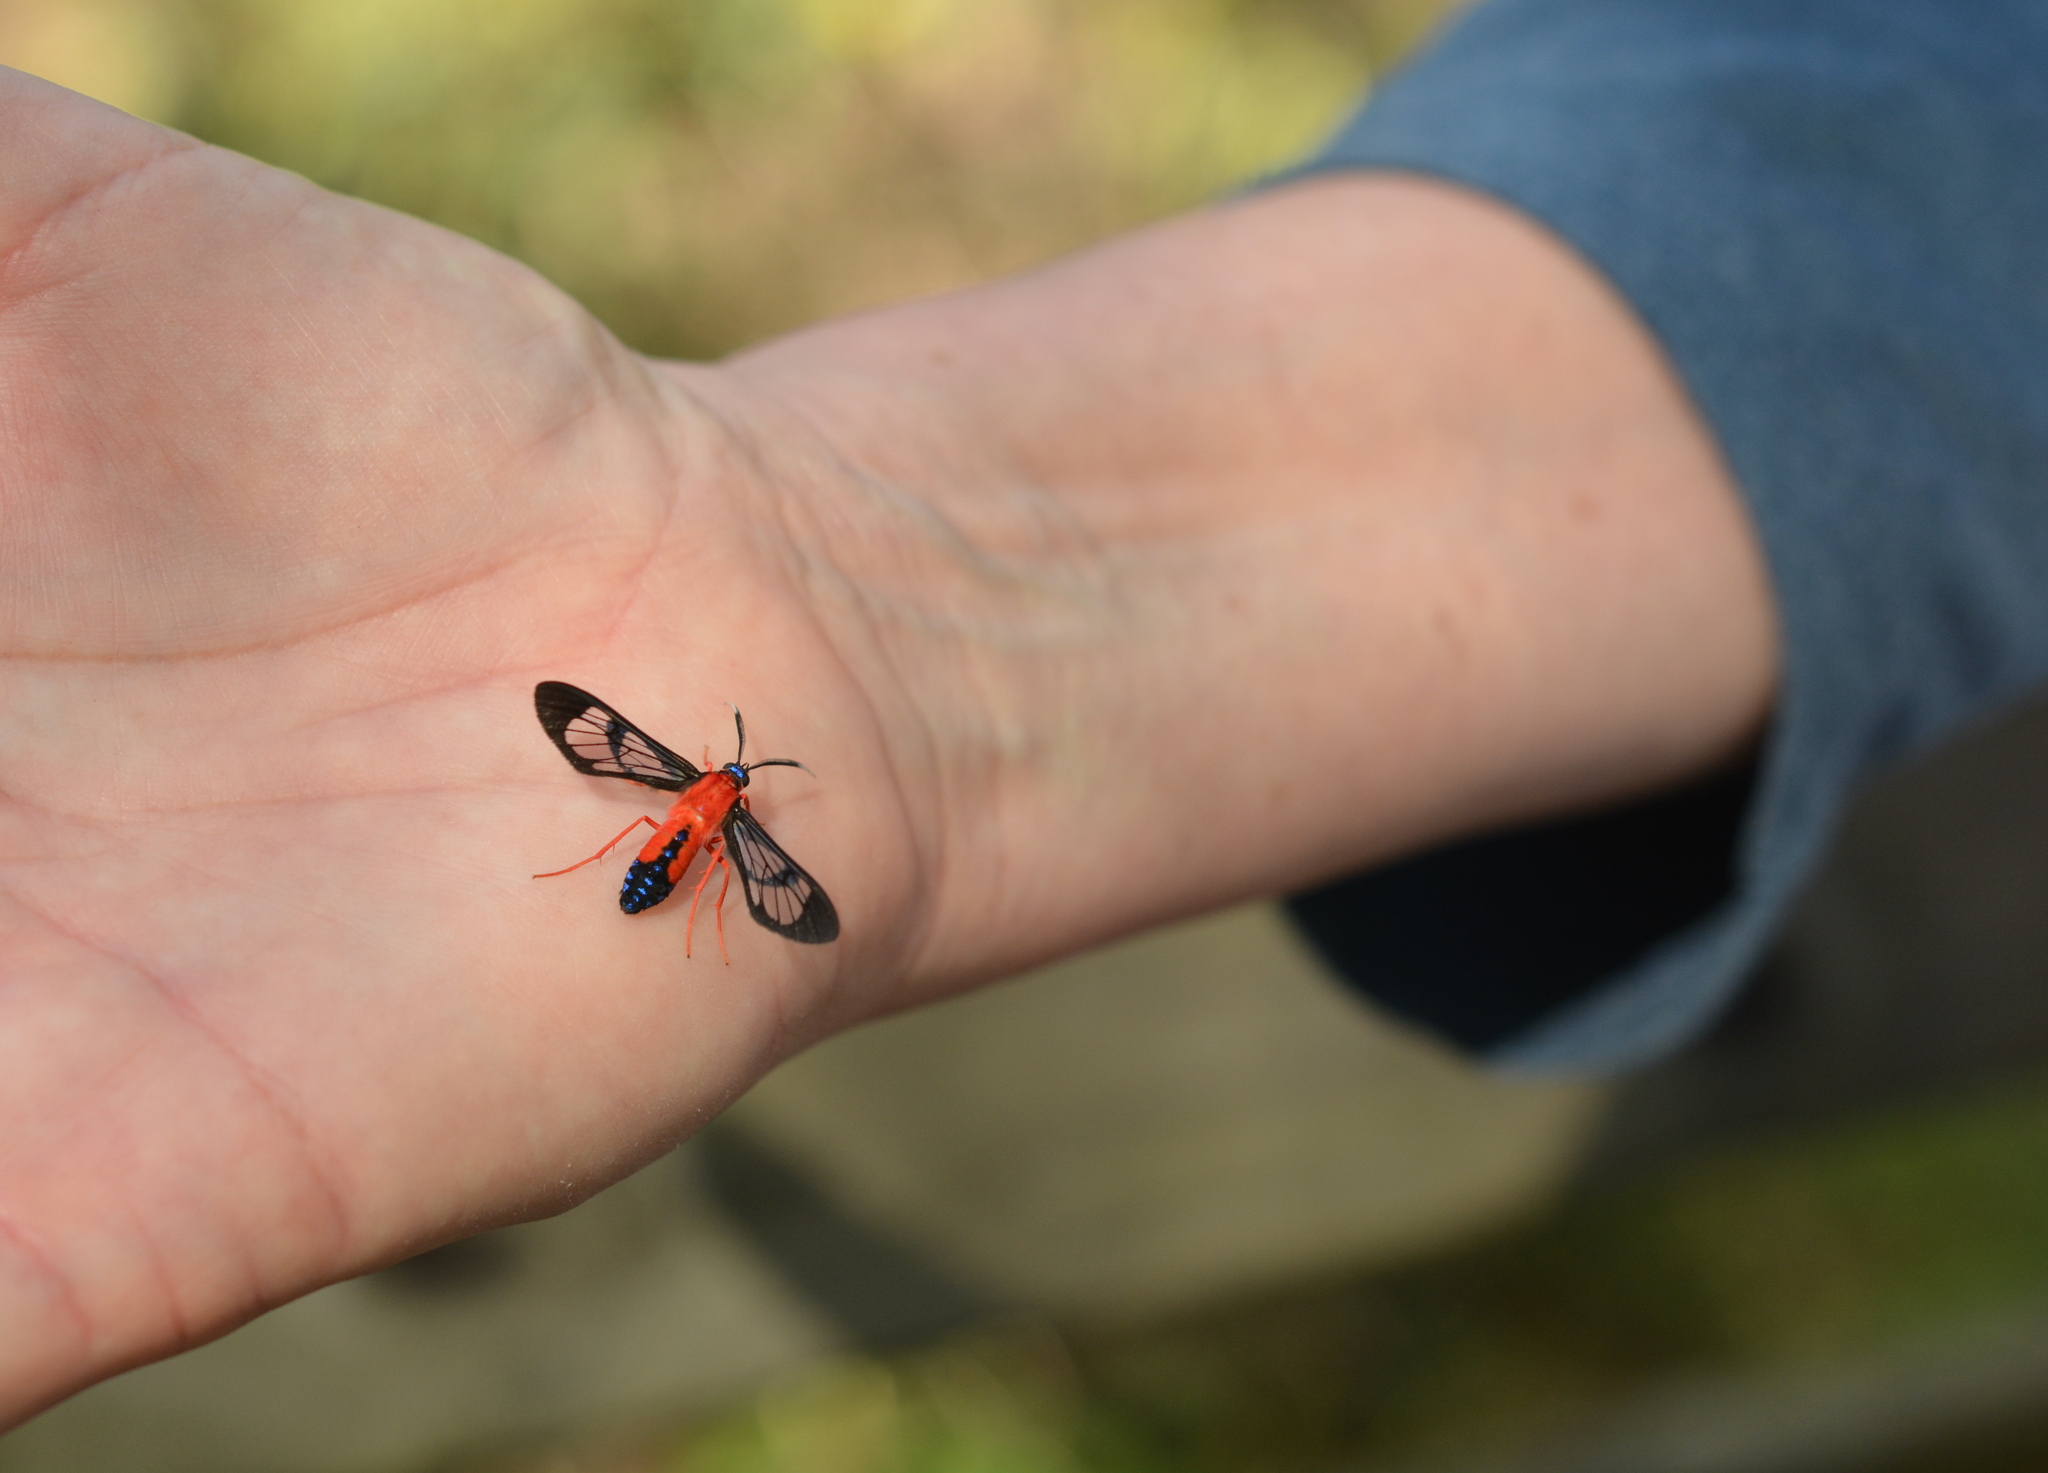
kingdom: Animalia
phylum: Arthropoda
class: Insecta
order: Lepidoptera
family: Erebidae
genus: Cosmosoma
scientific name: Cosmosoma myrodora
